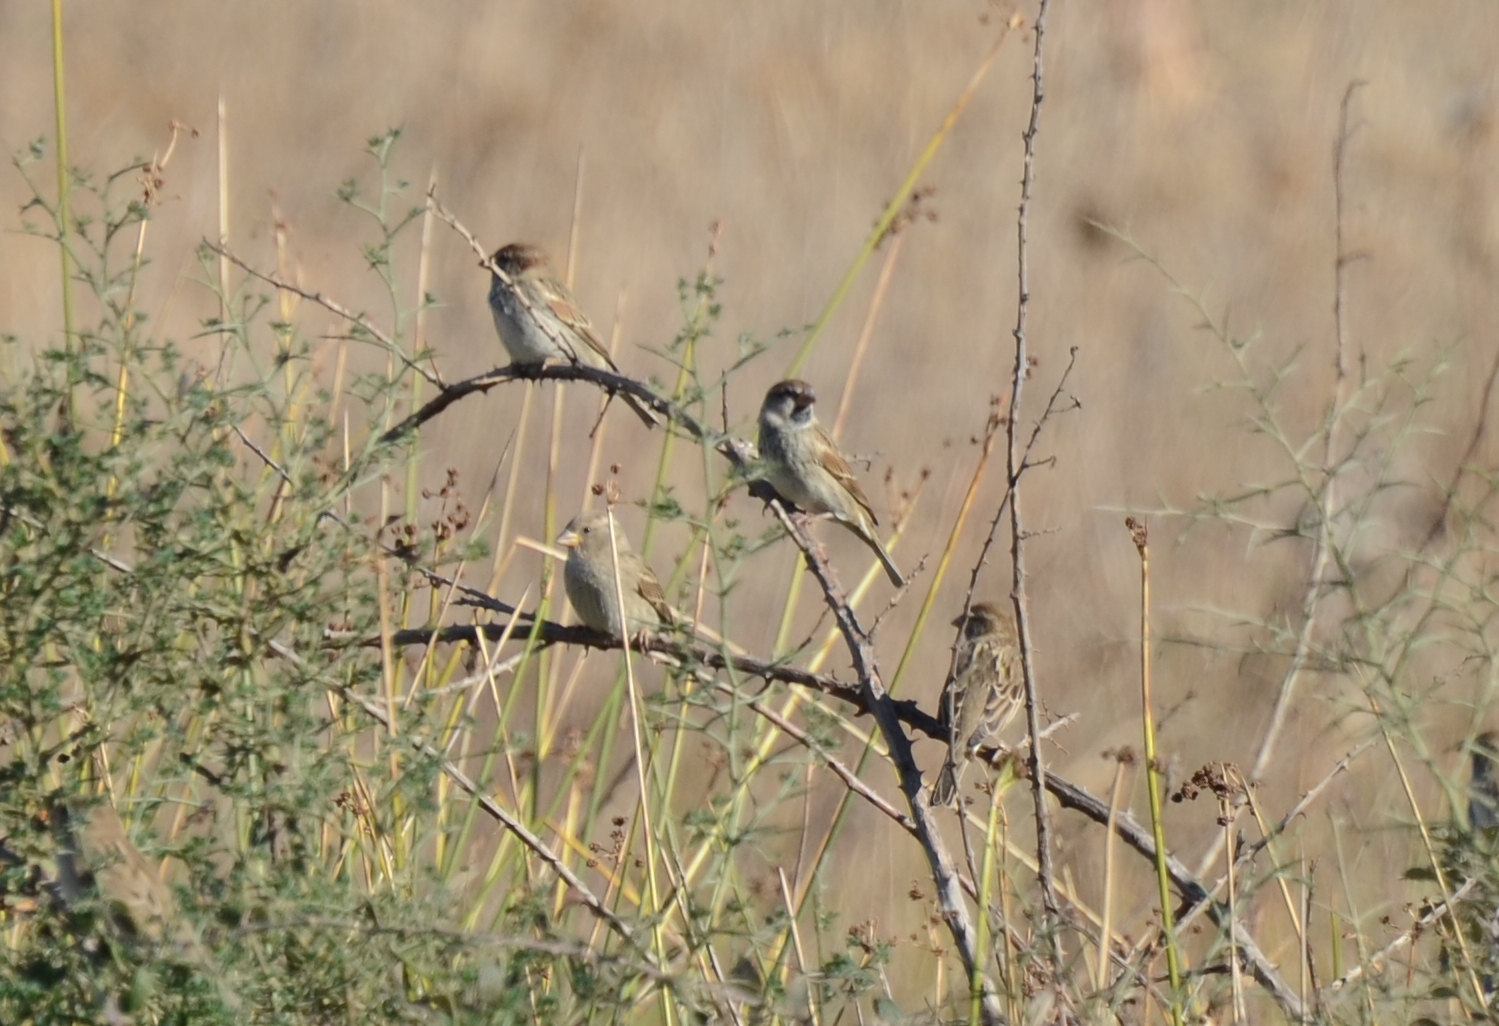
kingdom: Animalia
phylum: Chordata
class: Aves
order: Passeriformes
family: Passeridae
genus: Passer
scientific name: Passer domesticus
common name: House sparrow
